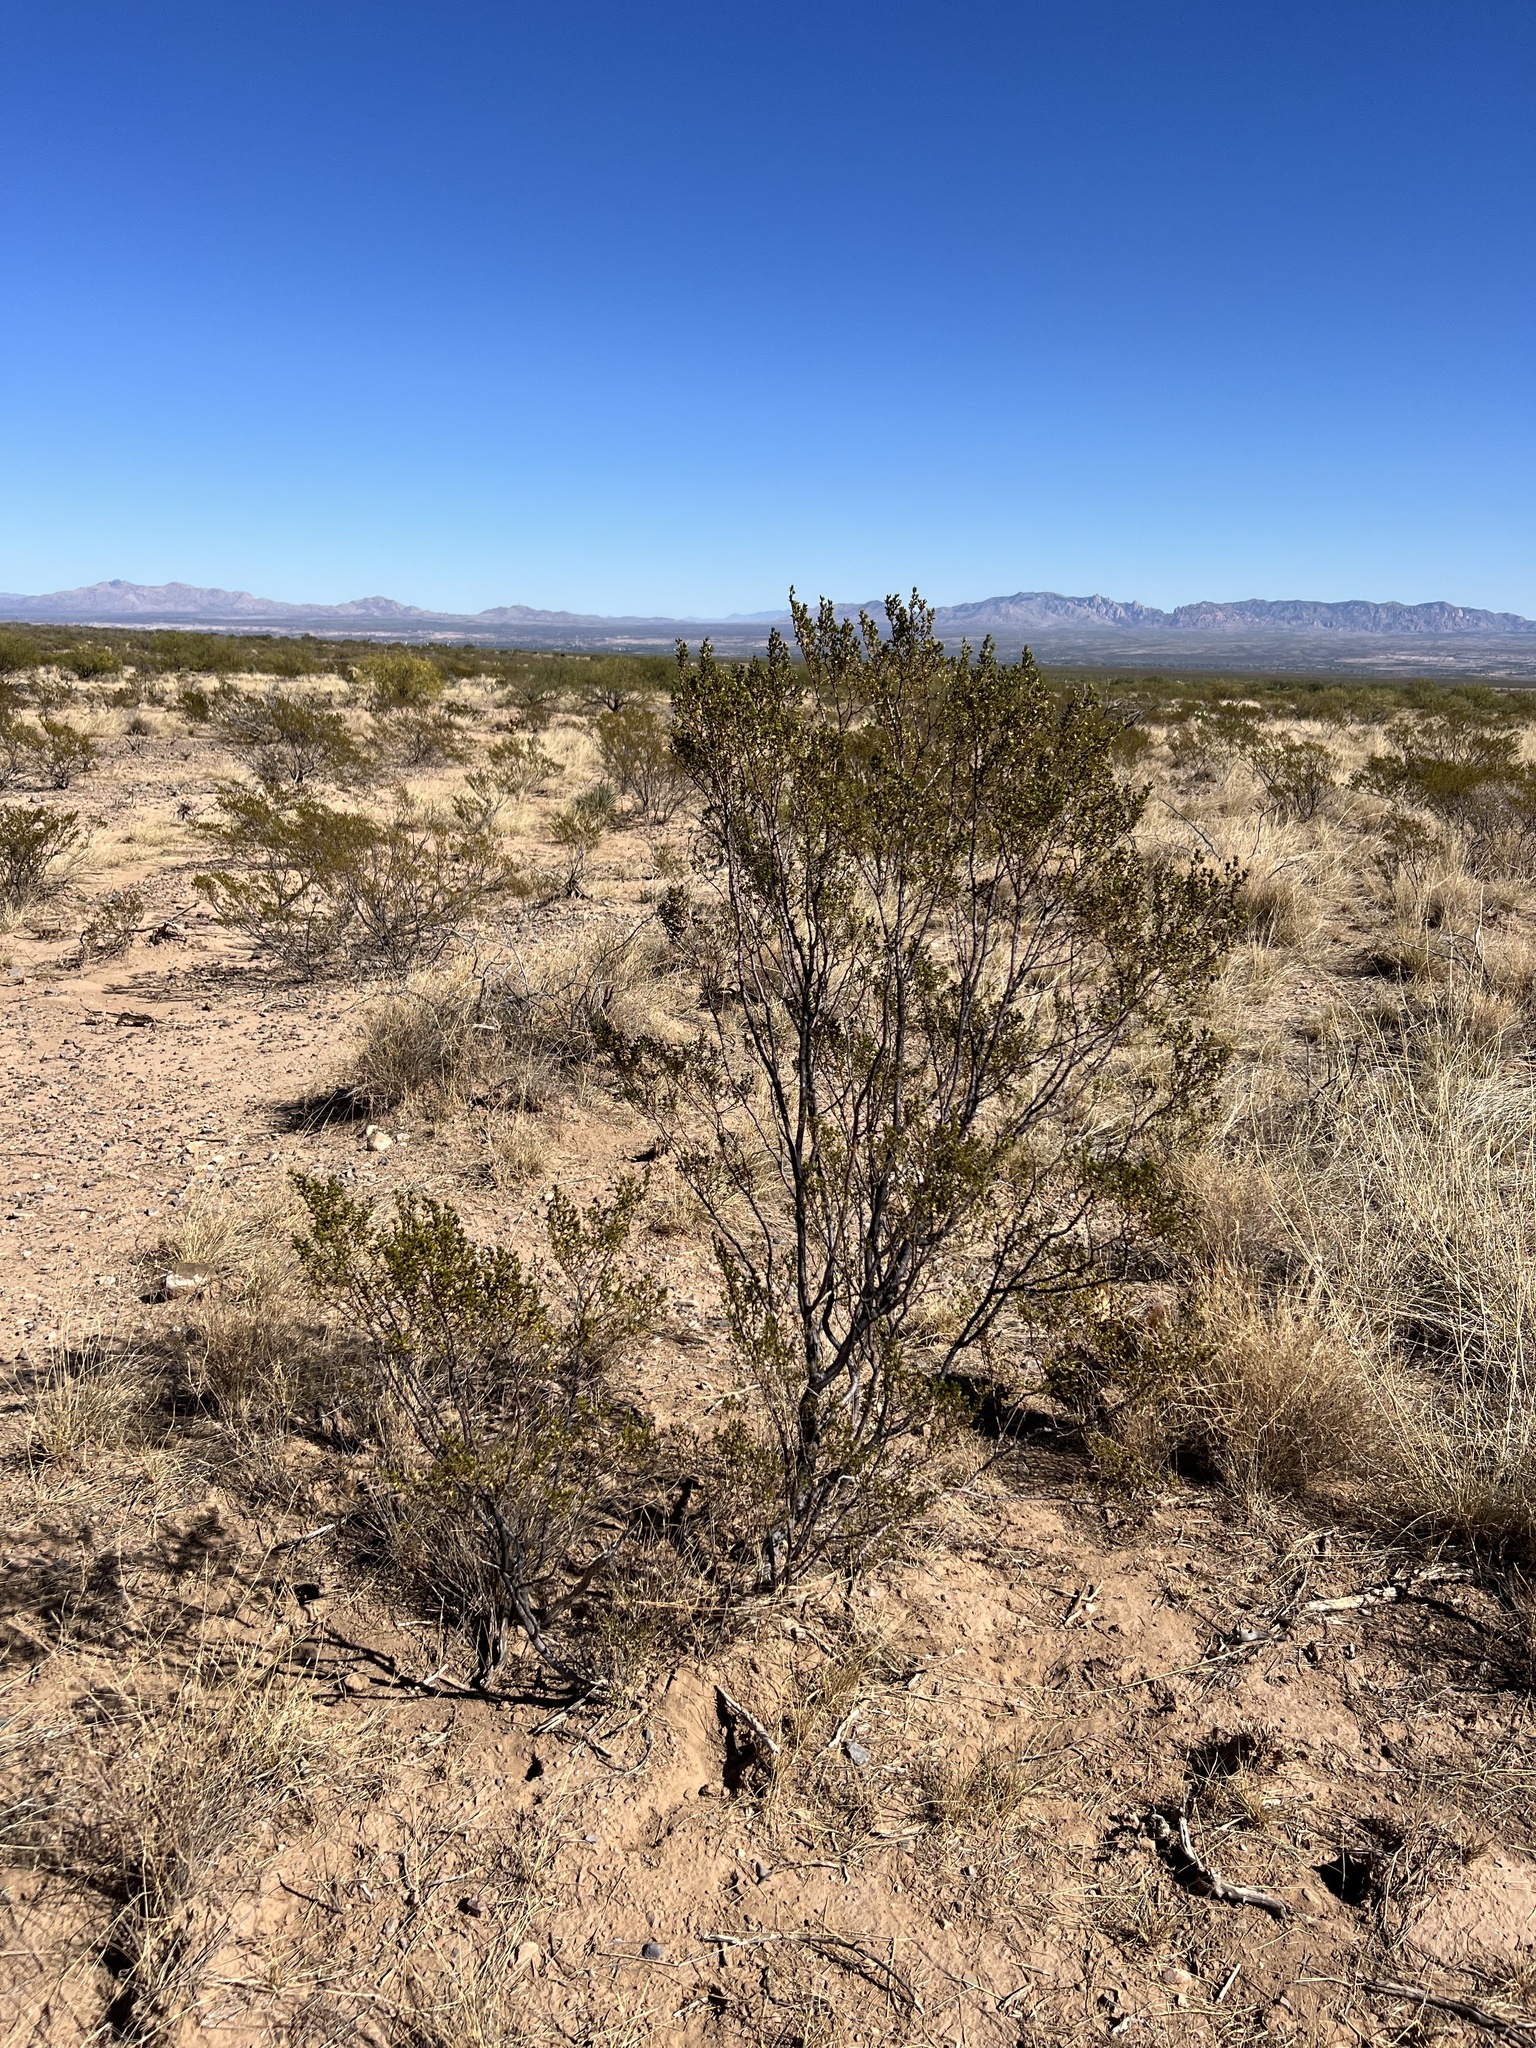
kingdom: Plantae
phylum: Tracheophyta
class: Magnoliopsida
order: Zygophyllales
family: Zygophyllaceae
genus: Larrea
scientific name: Larrea tridentata
